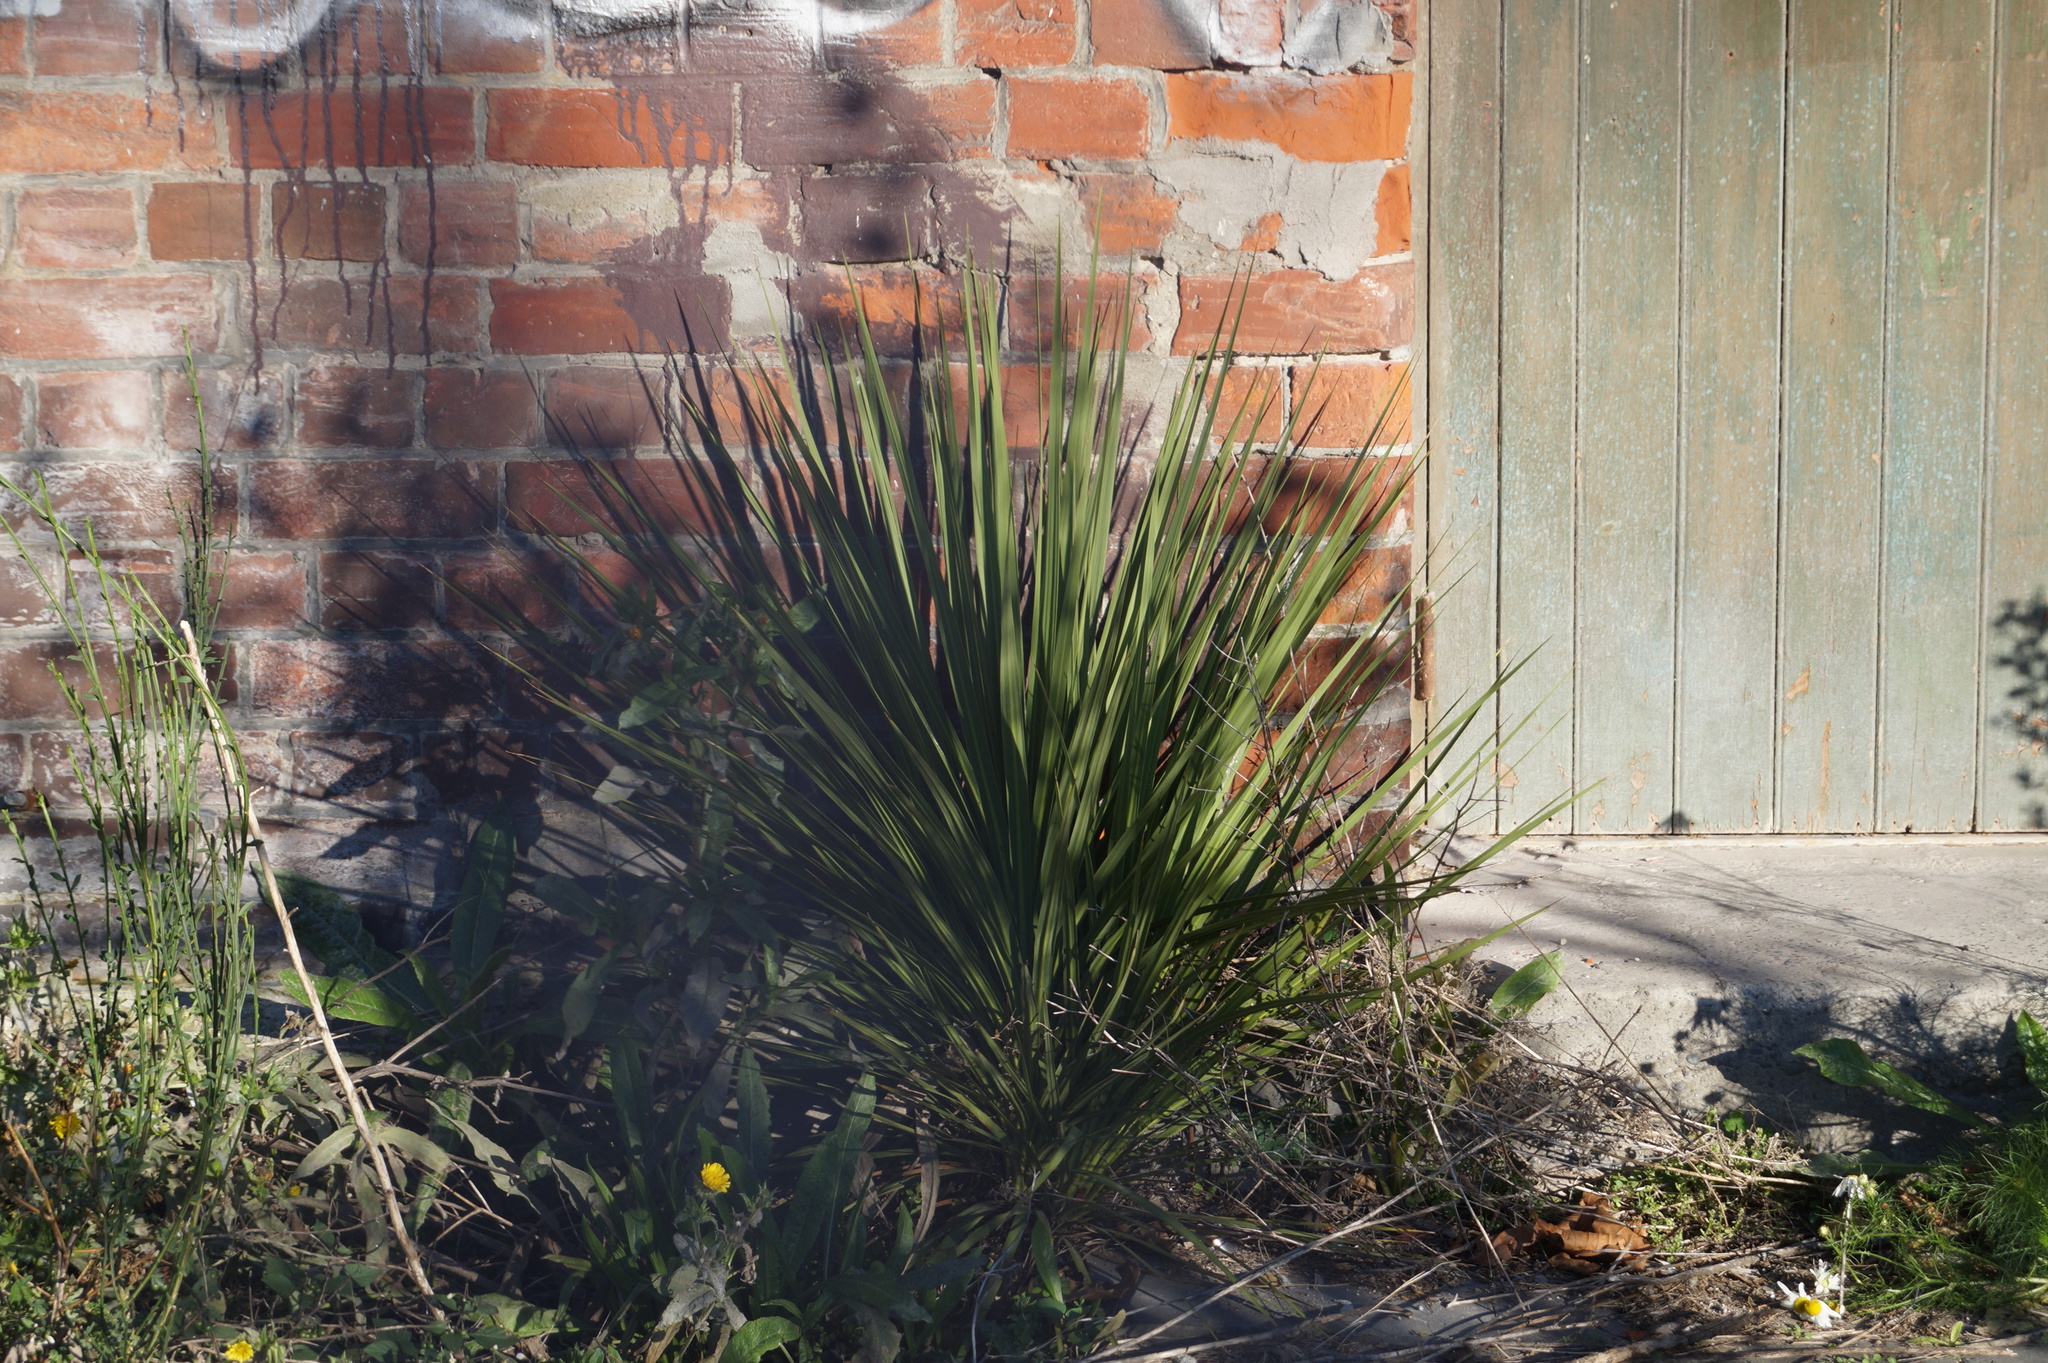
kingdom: Plantae
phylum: Tracheophyta
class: Liliopsida
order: Asparagales
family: Asparagaceae
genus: Cordyline
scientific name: Cordyline australis
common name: Cabbage-palm
